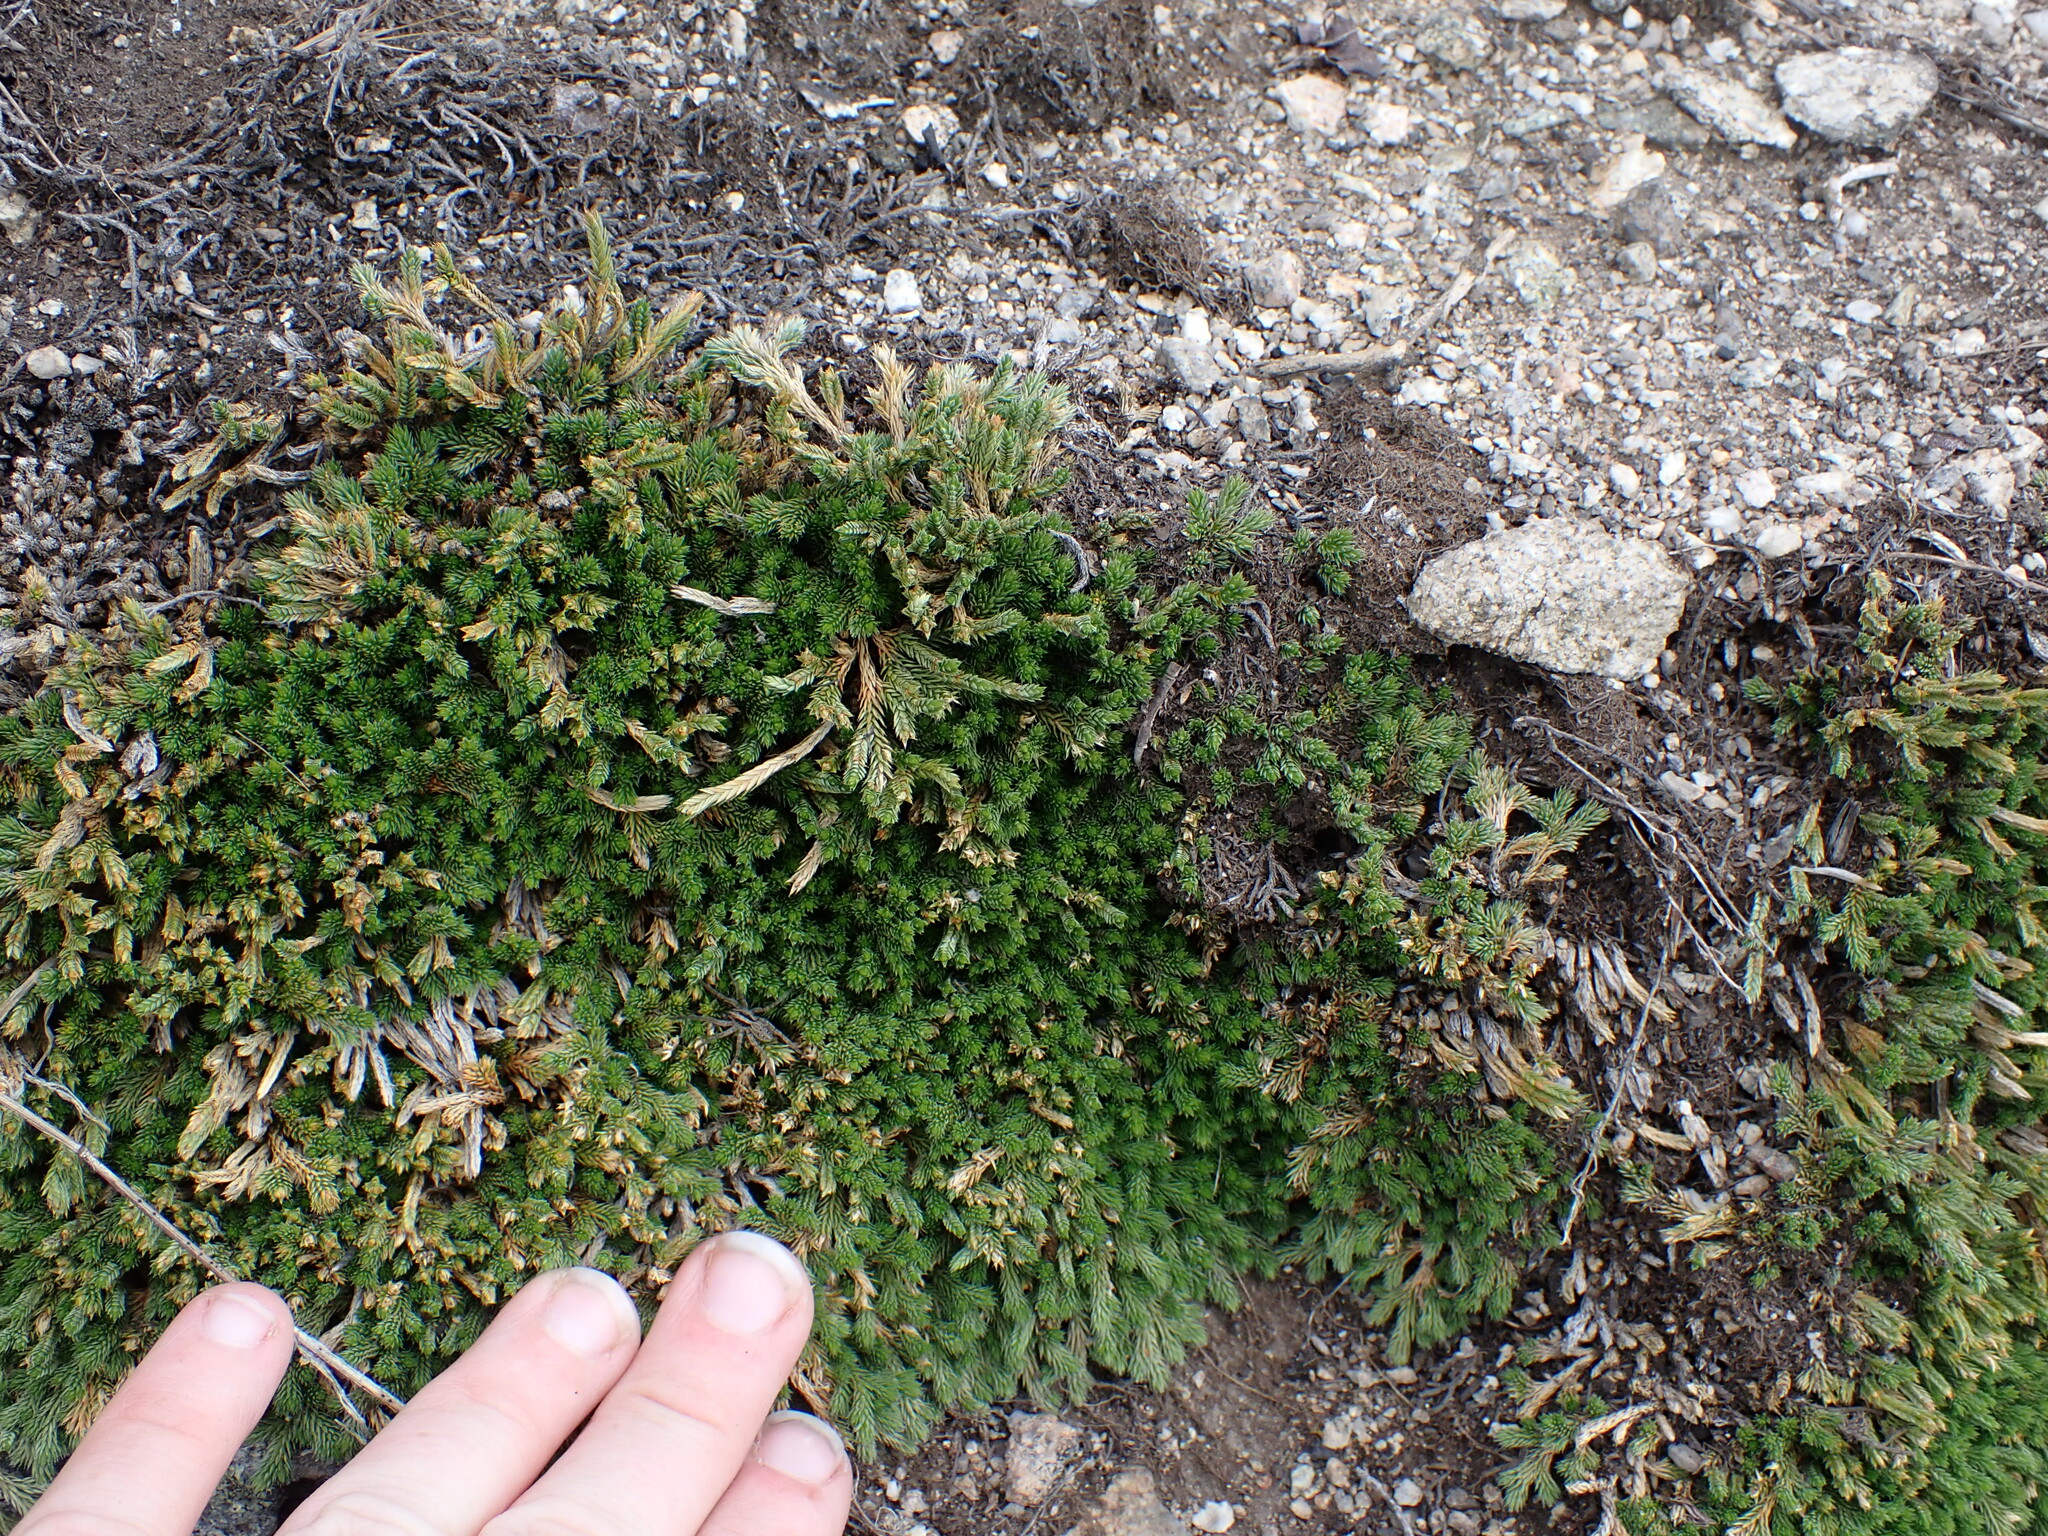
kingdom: Plantae
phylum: Tracheophyta
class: Lycopodiopsida
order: Selaginellales
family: Selaginellaceae
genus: Selaginella
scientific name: Selaginella wallacei
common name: Wallace's selaginella
